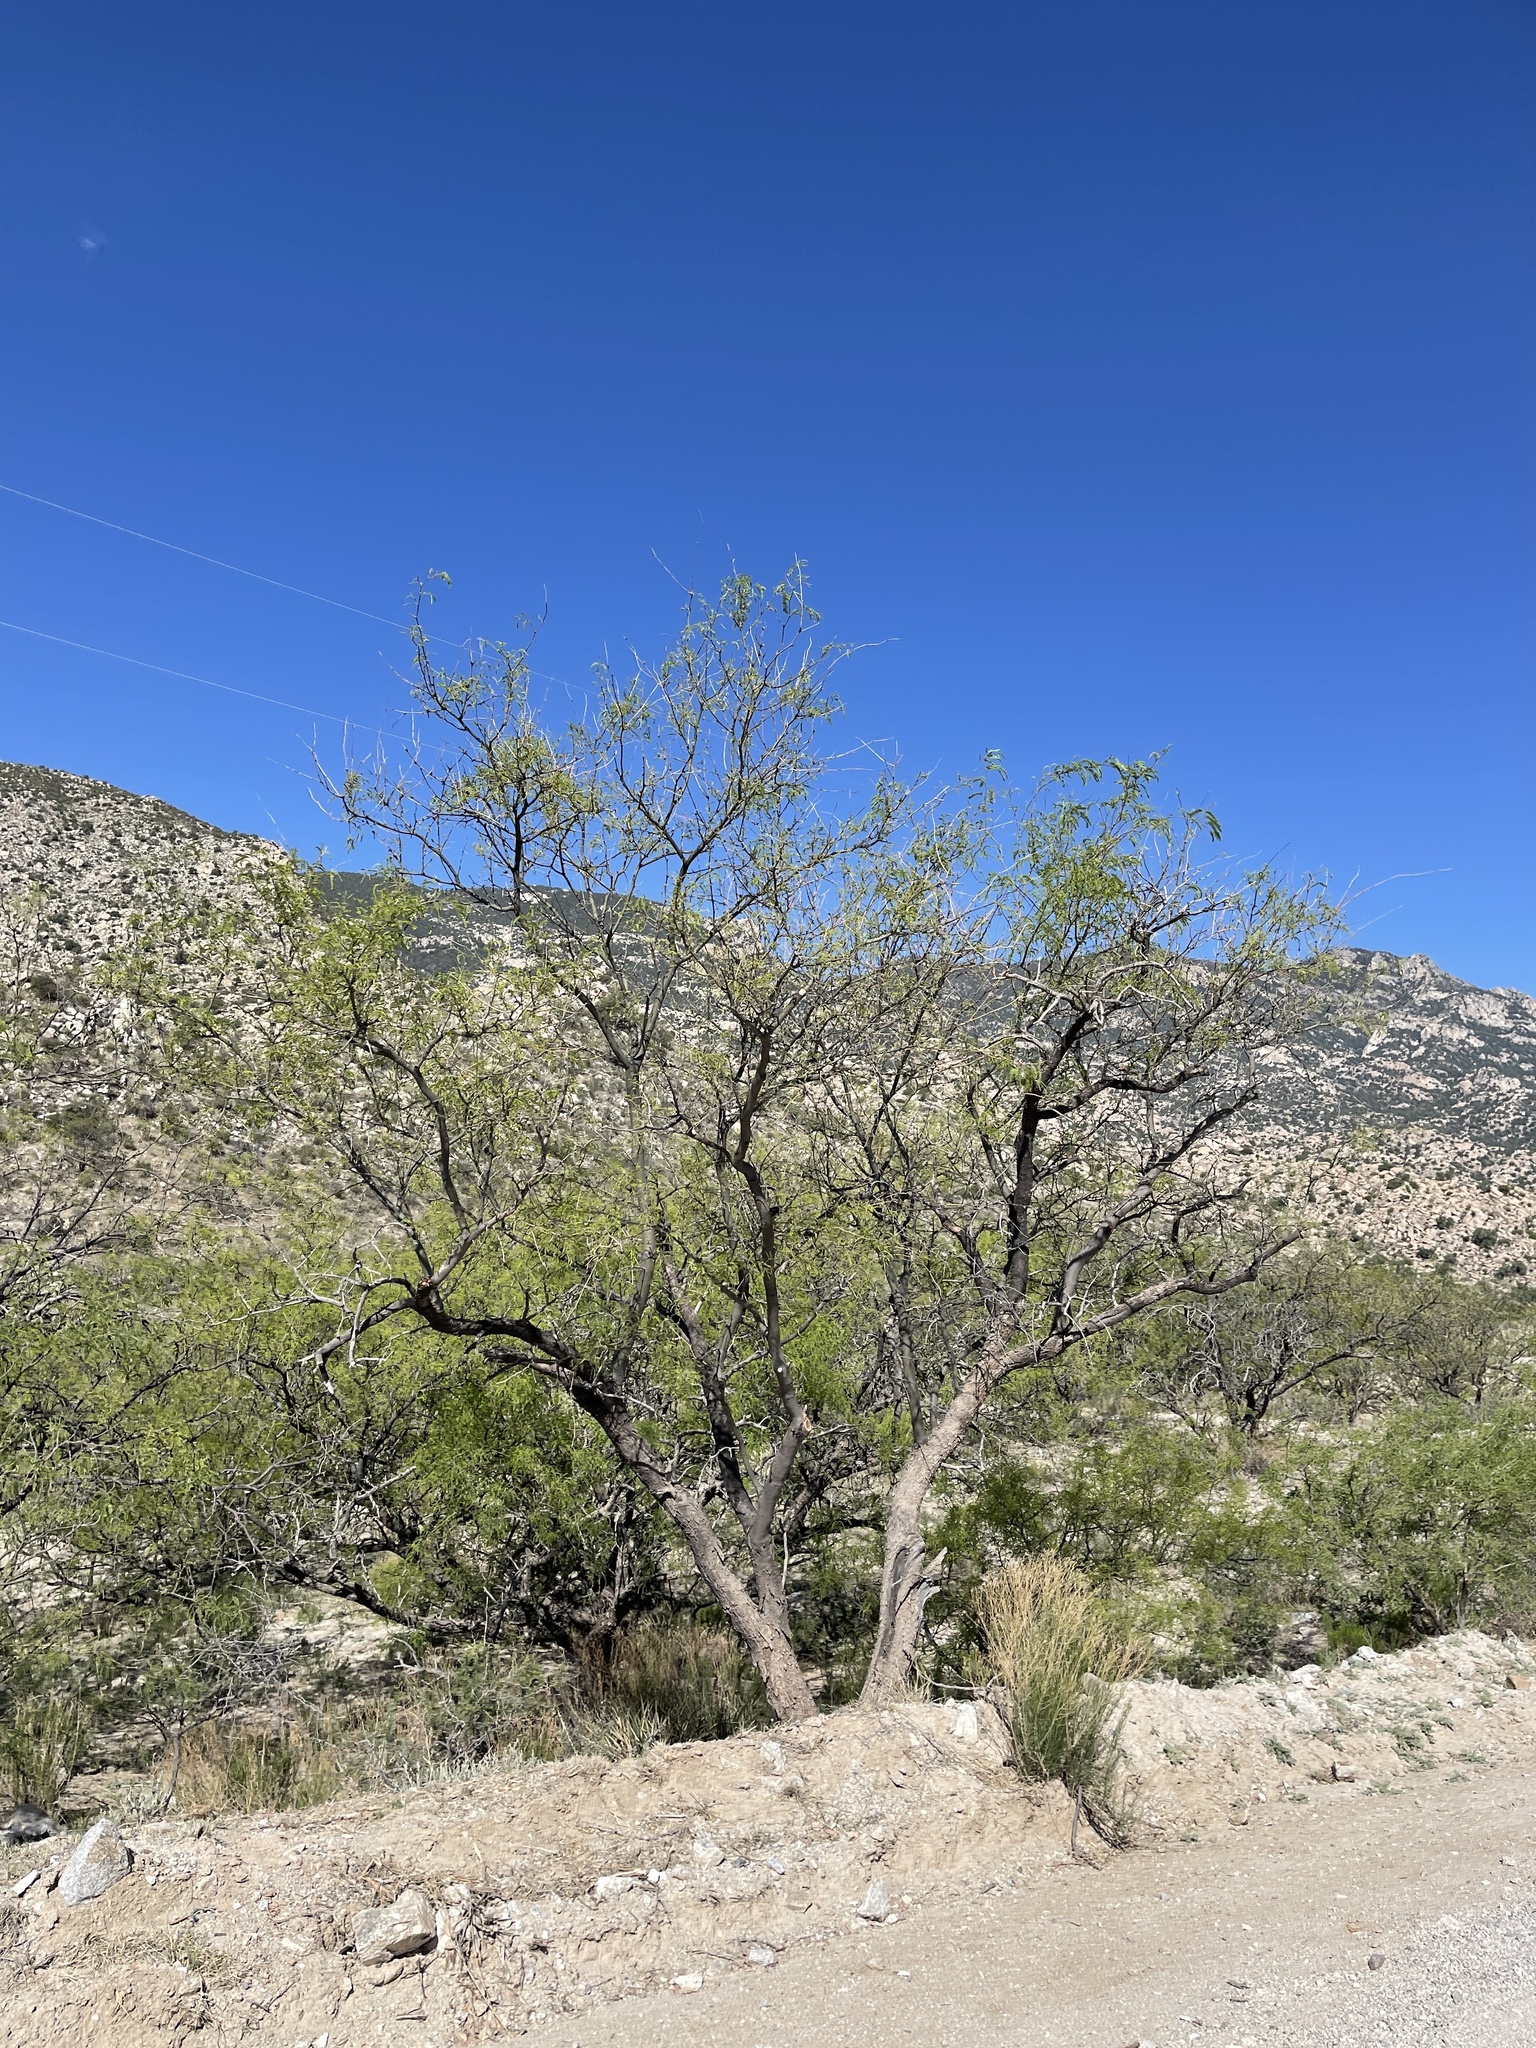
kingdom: Plantae
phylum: Tracheophyta
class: Magnoliopsida
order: Fabales
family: Fabaceae
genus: Prosopis
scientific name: Prosopis velutina
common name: Velvet mesquite
